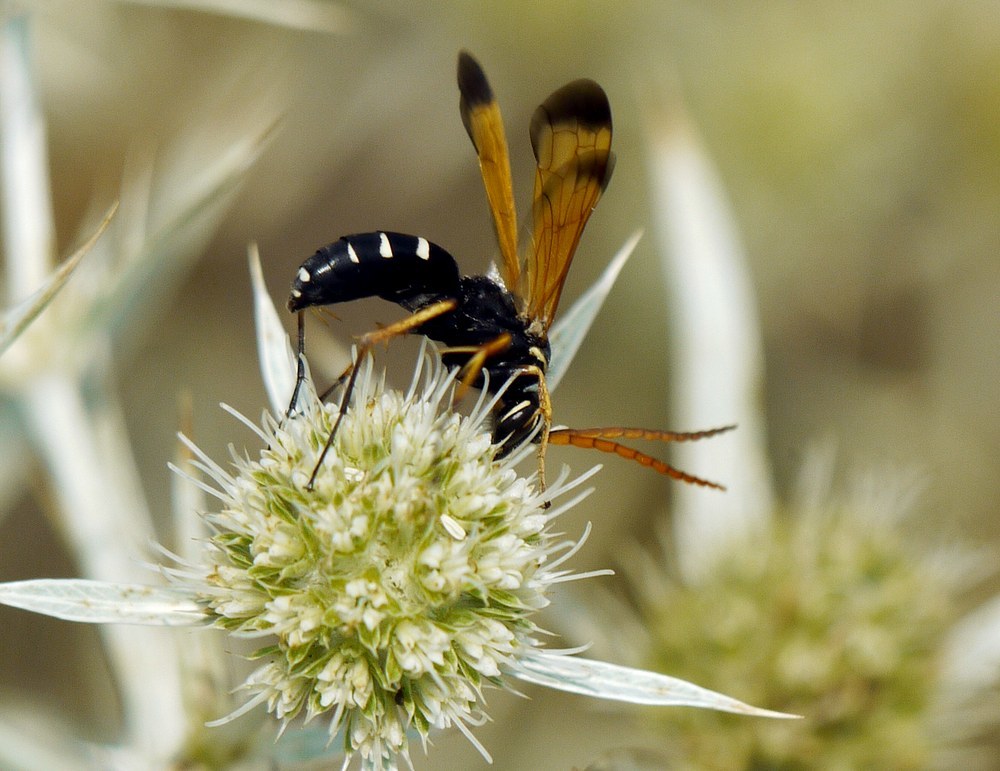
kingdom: Animalia
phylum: Arthropoda
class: Insecta
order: Hymenoptera
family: Pompilidae
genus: Parabatozonus
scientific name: Parabatozonus lacerticida
